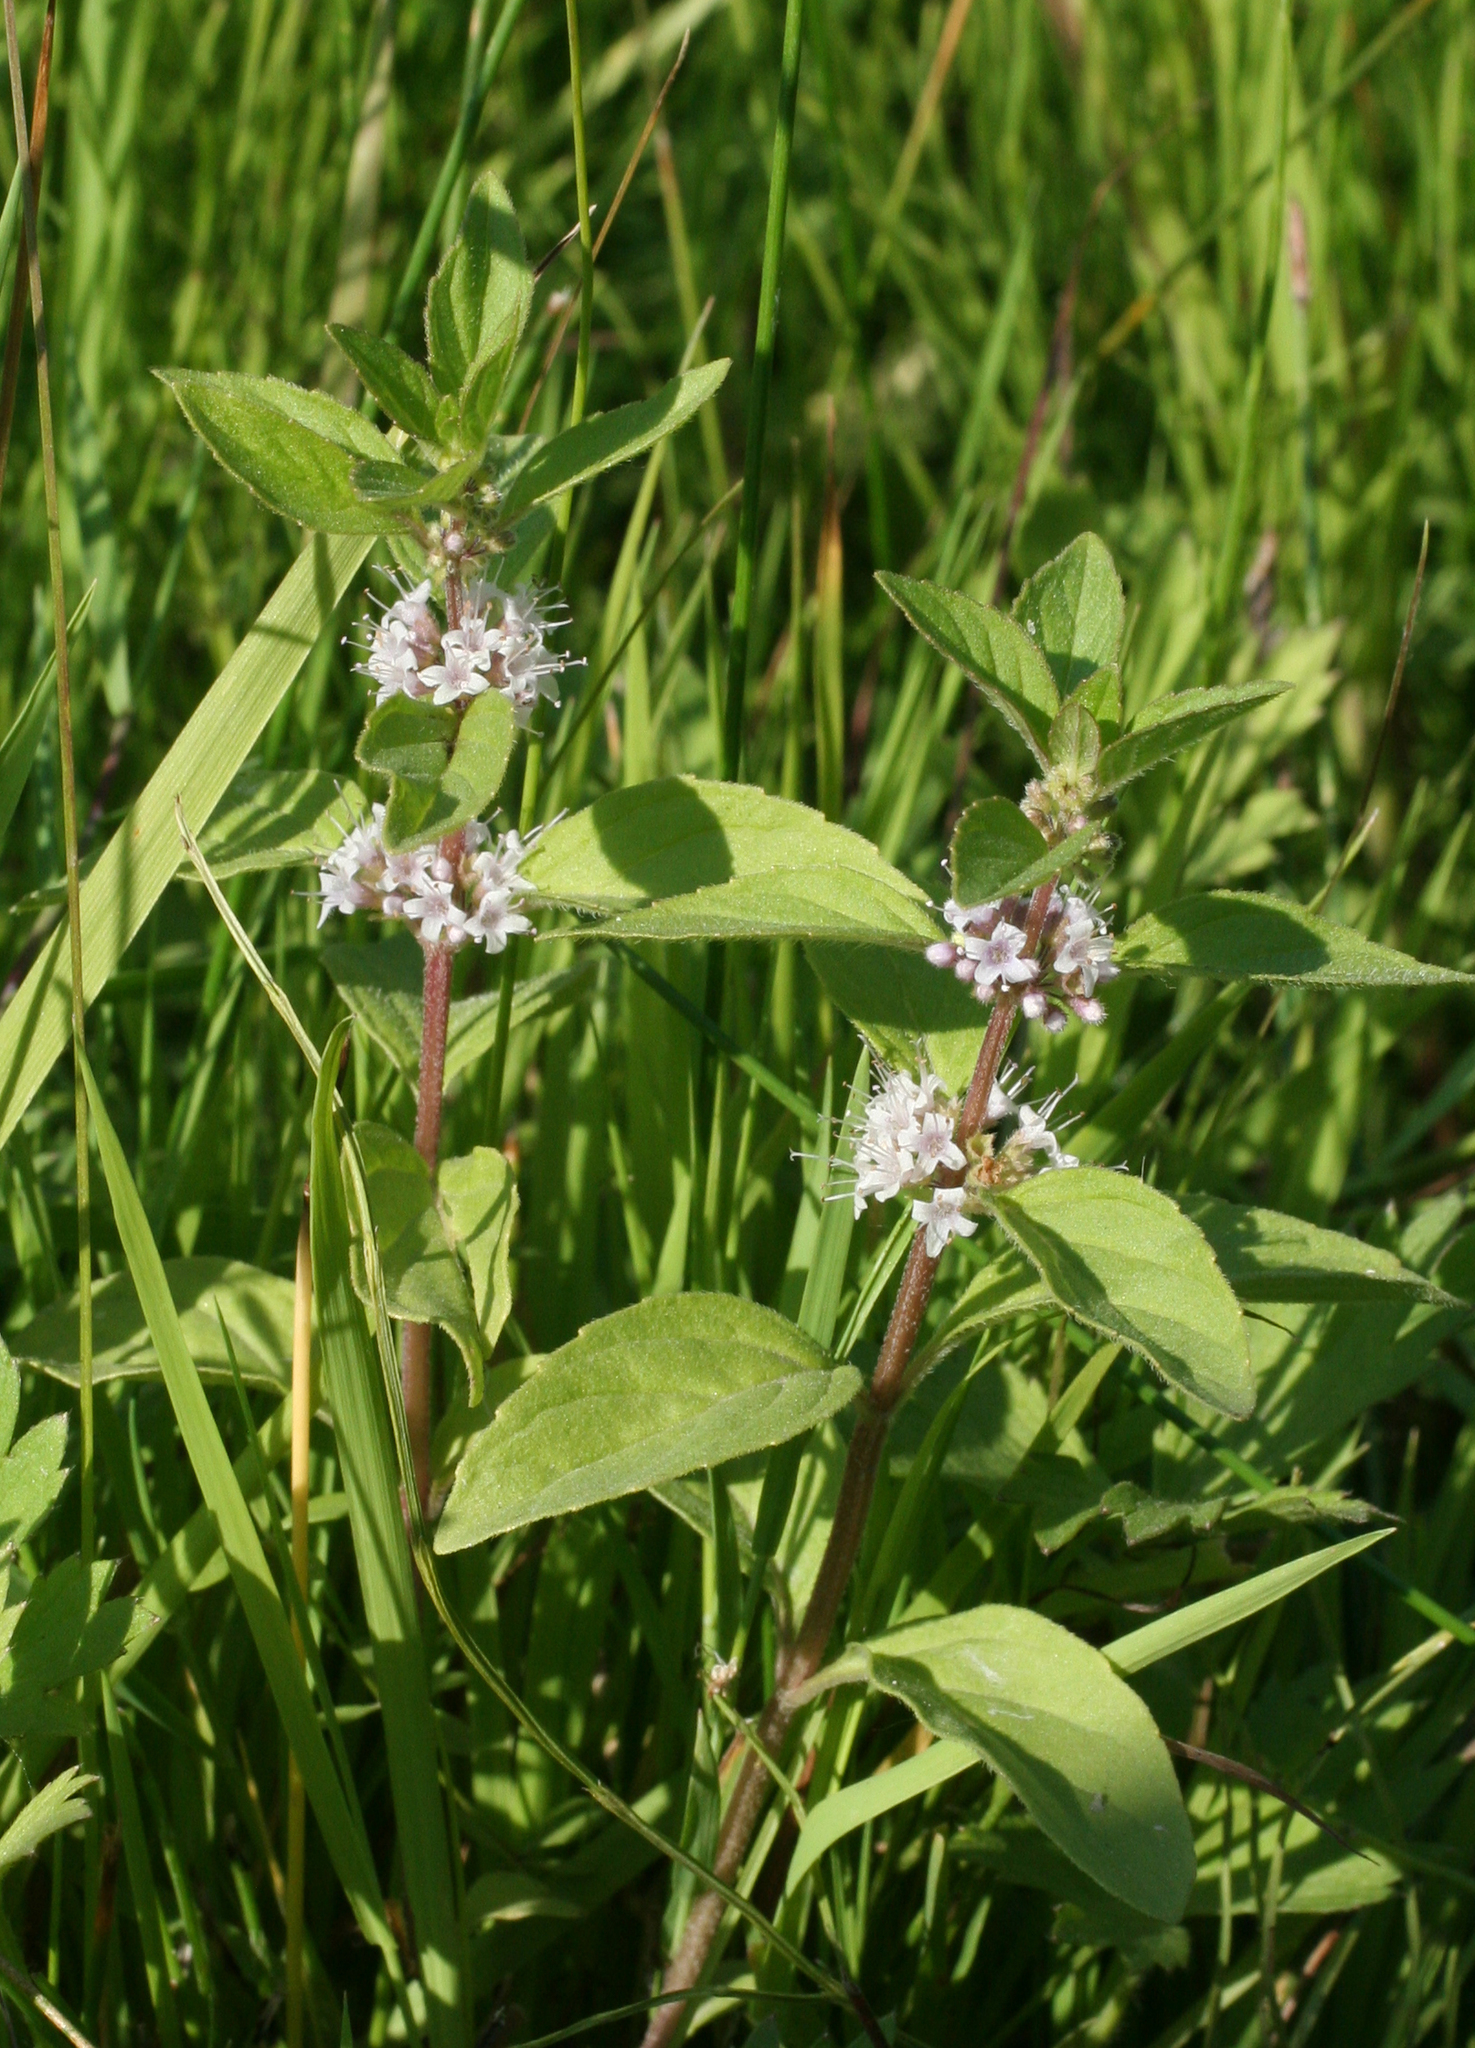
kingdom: Plantae
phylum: Tracheophyta
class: Magnoliopsida
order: Lamiales
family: Lamiaceae
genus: Mentha
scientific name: Mentha arvensis
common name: Corn mint
